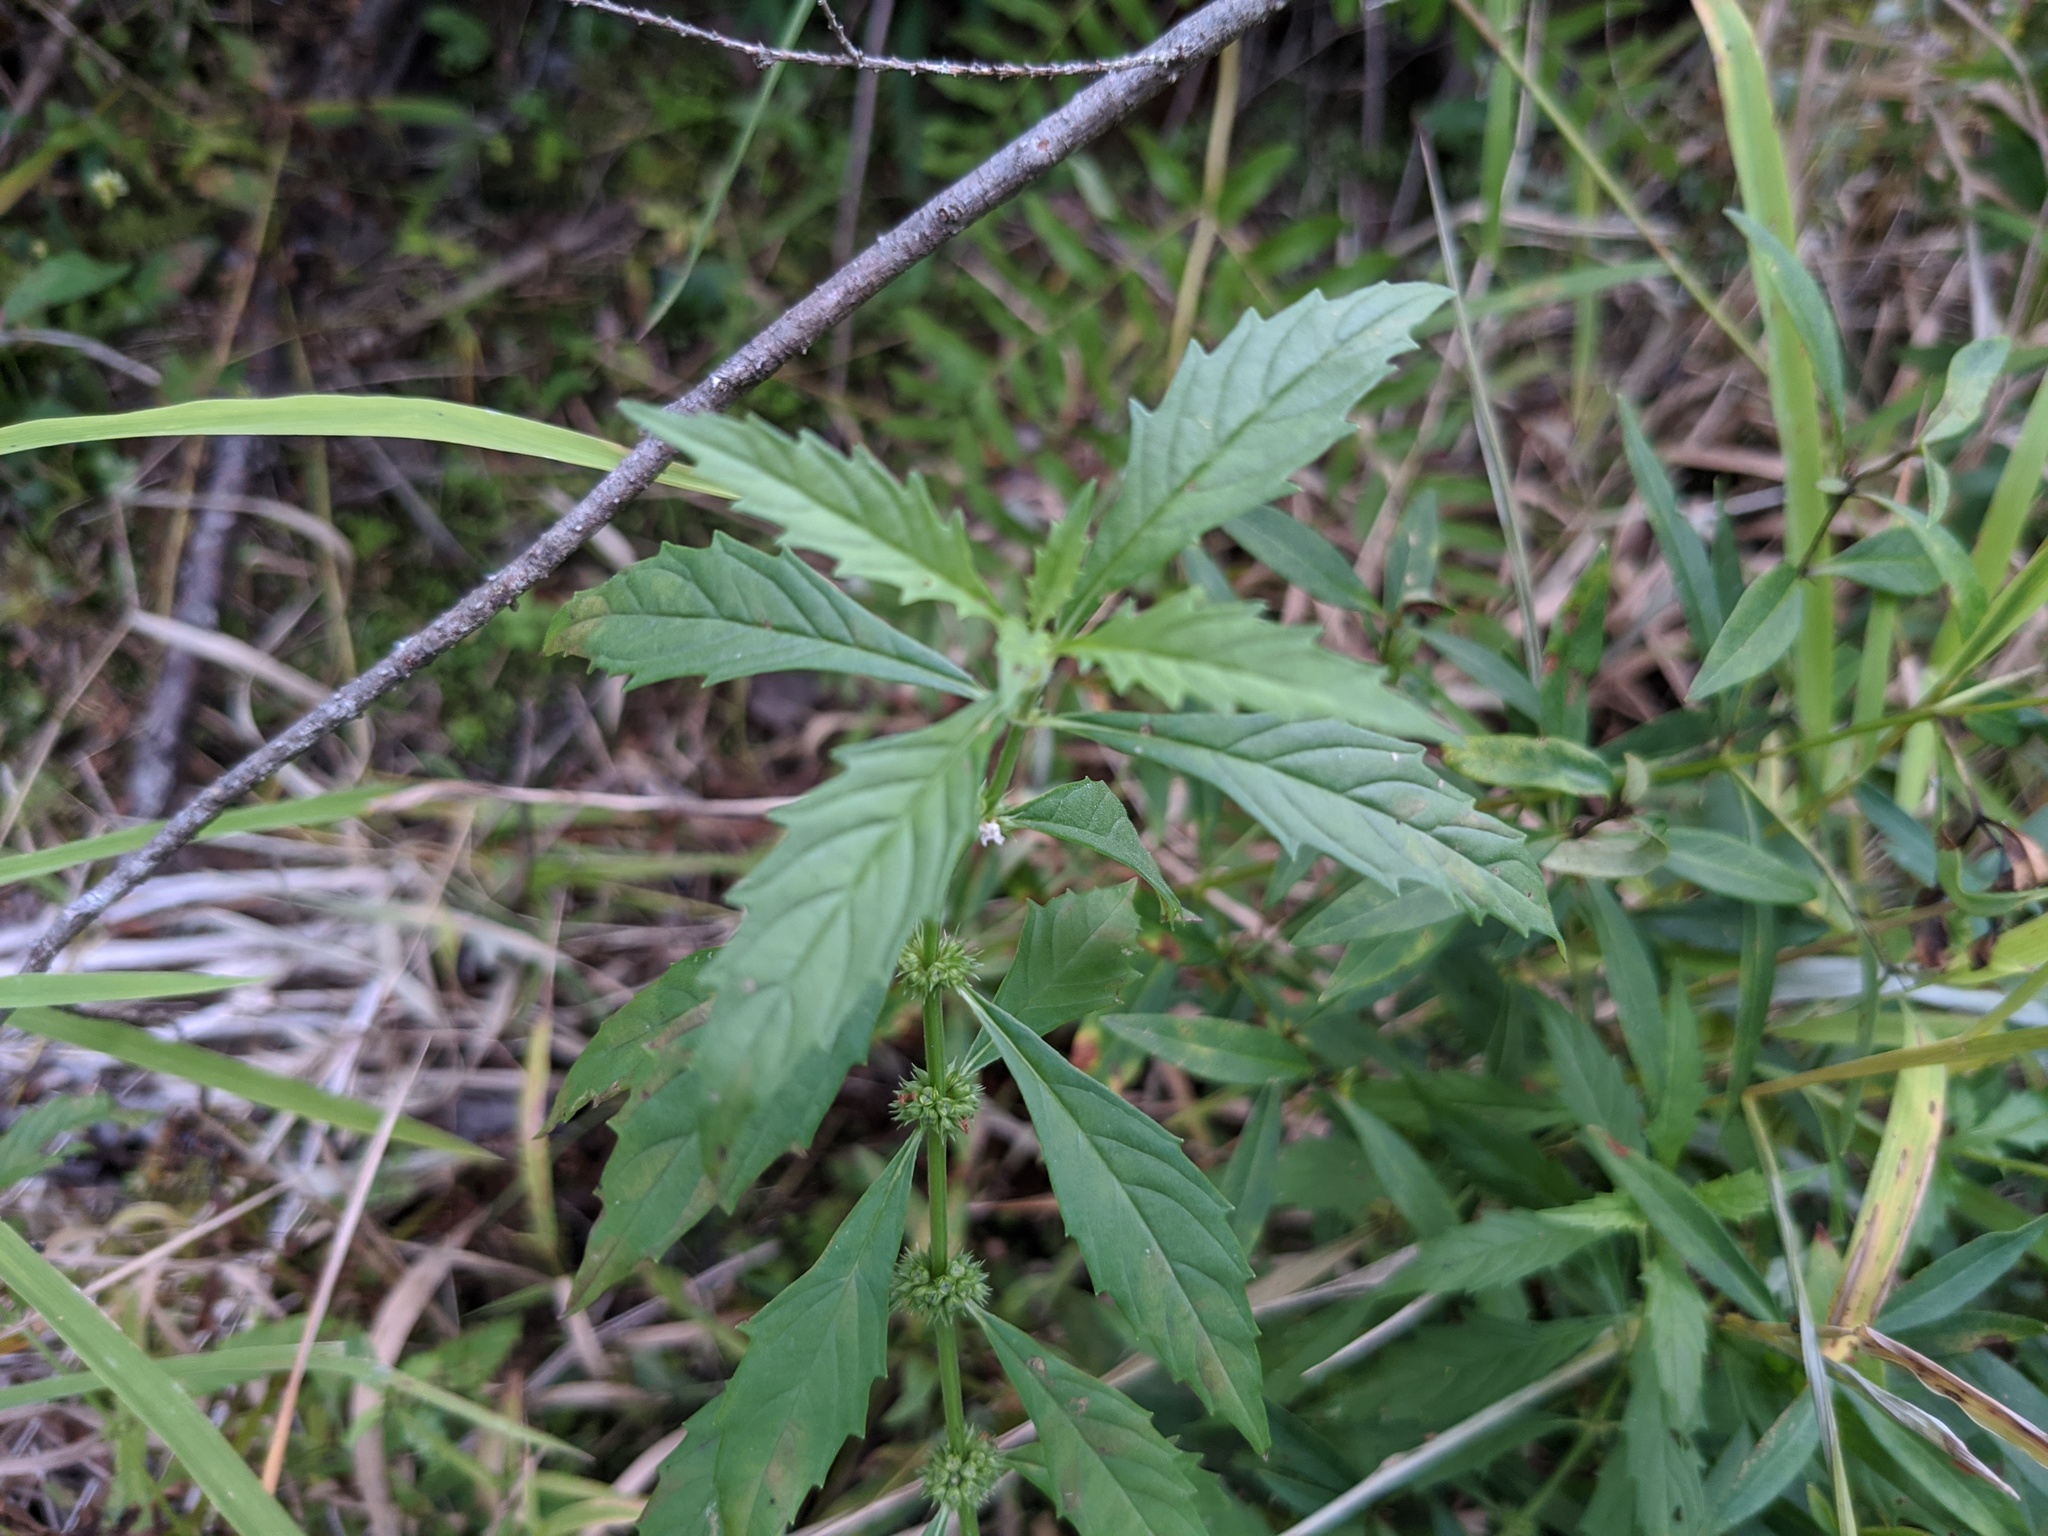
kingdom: Plantae
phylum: Tracheophyta
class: Magnoliopsida
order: Lamiales
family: Lamiaceae
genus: Lycopus
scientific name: Lycopus americanus
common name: American bugleweed
